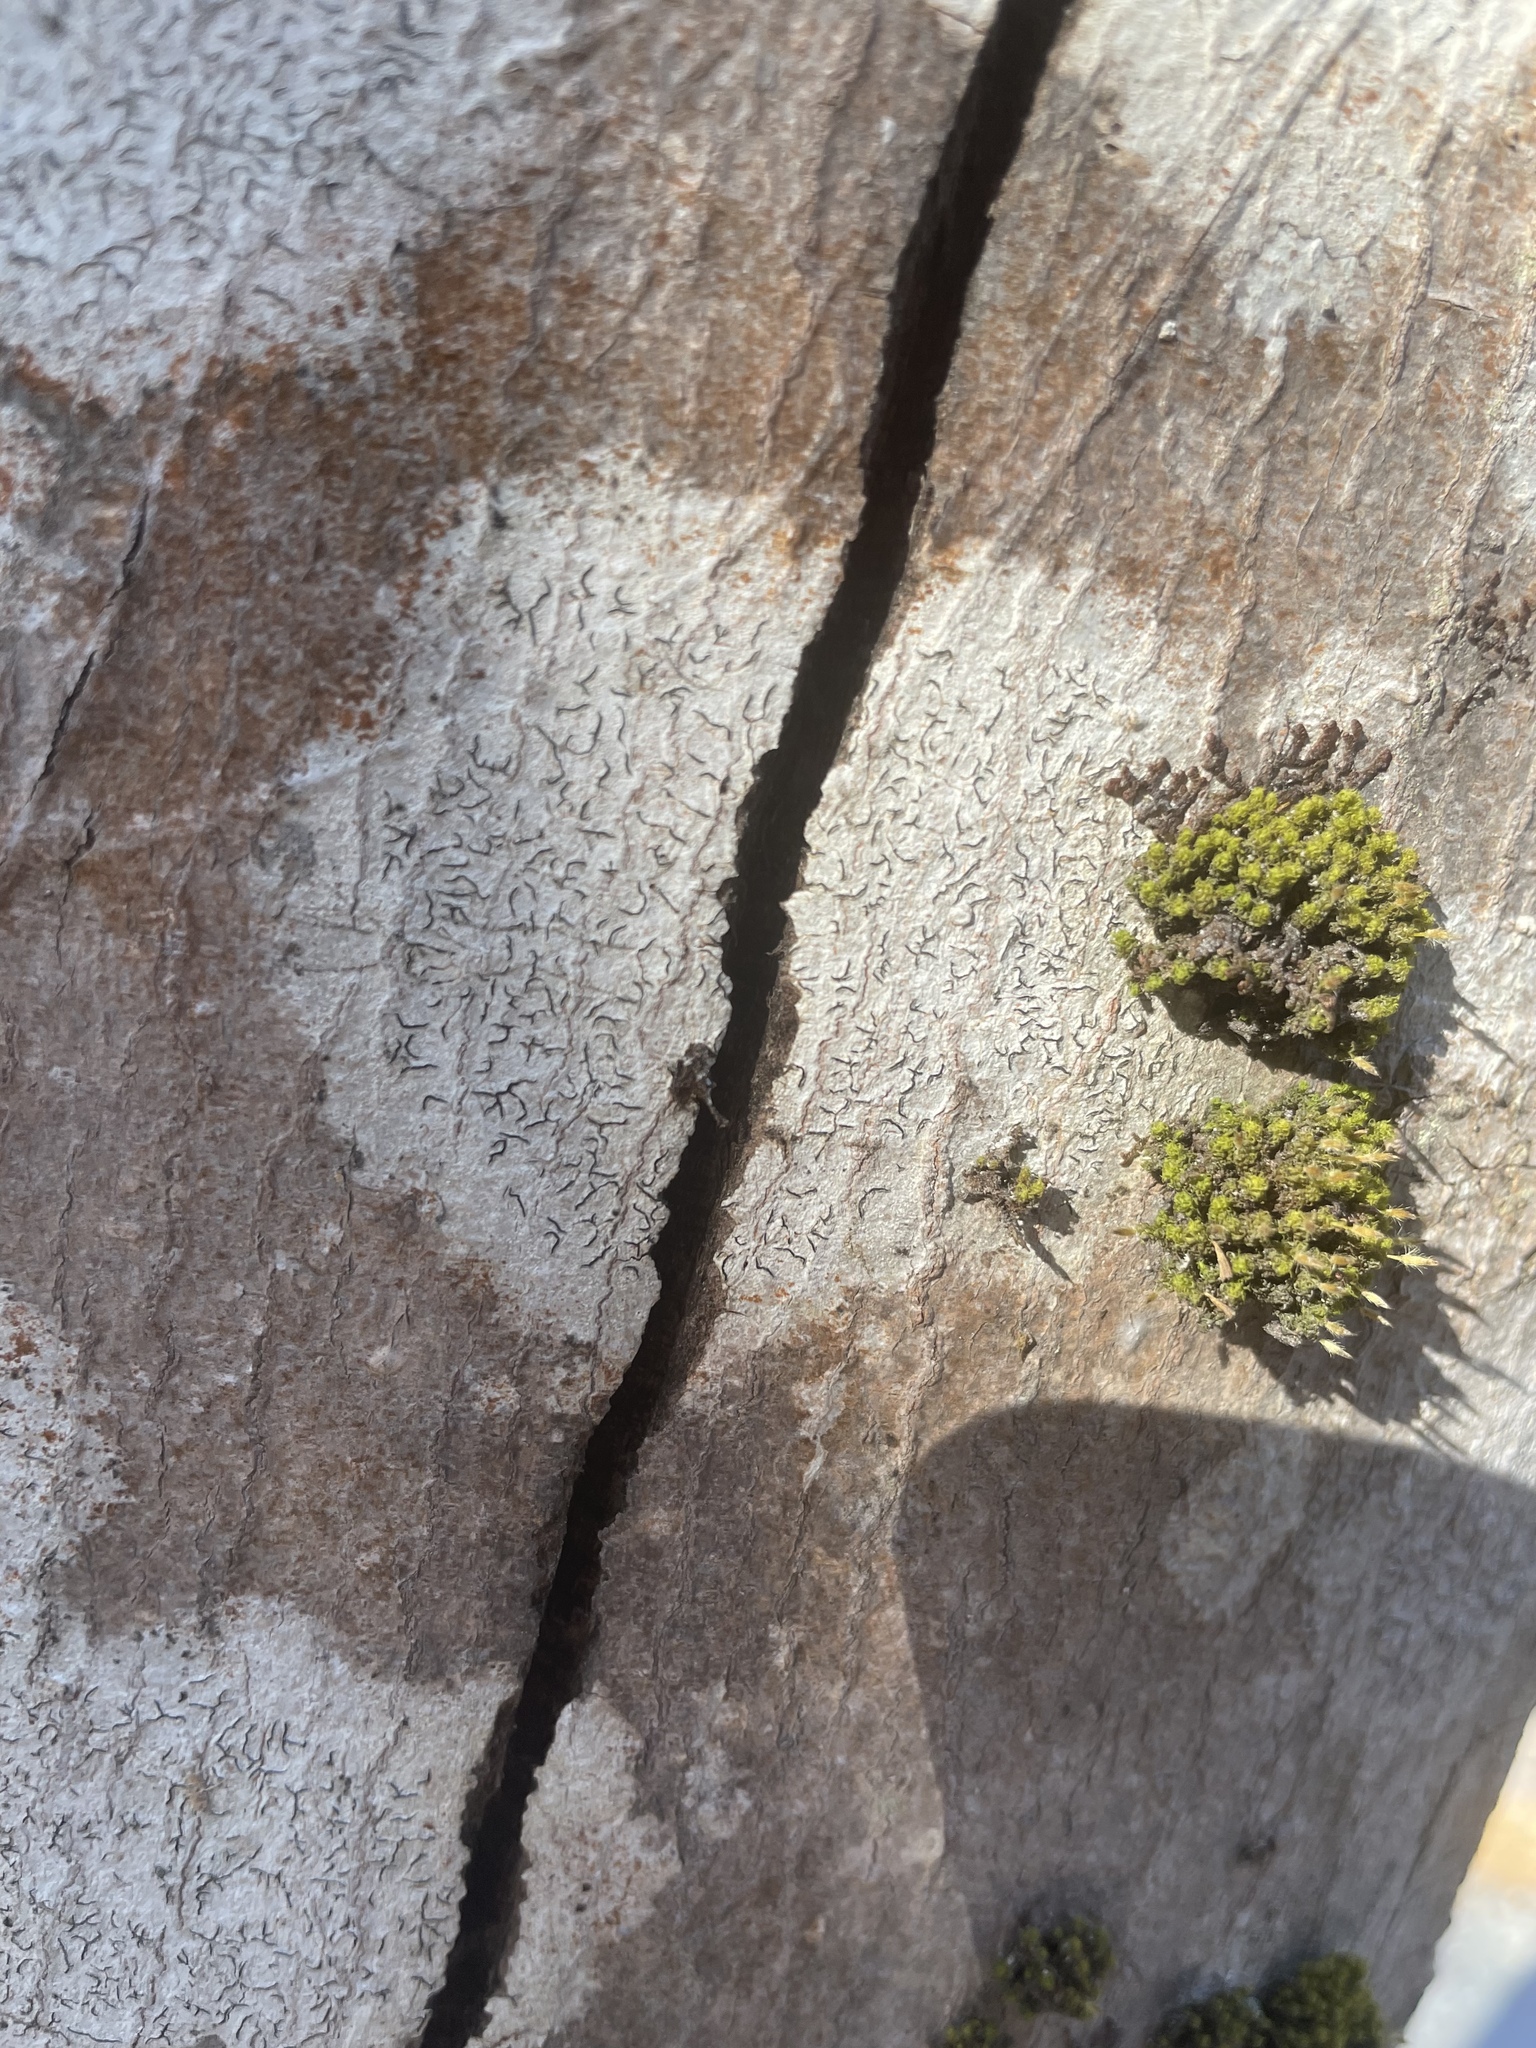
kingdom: Fungi
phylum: Ascomycota
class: Lecanoromycetes
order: Ostropales
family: Graphidaceae
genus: Graphis
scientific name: Graphis scripta
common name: Script lichen
